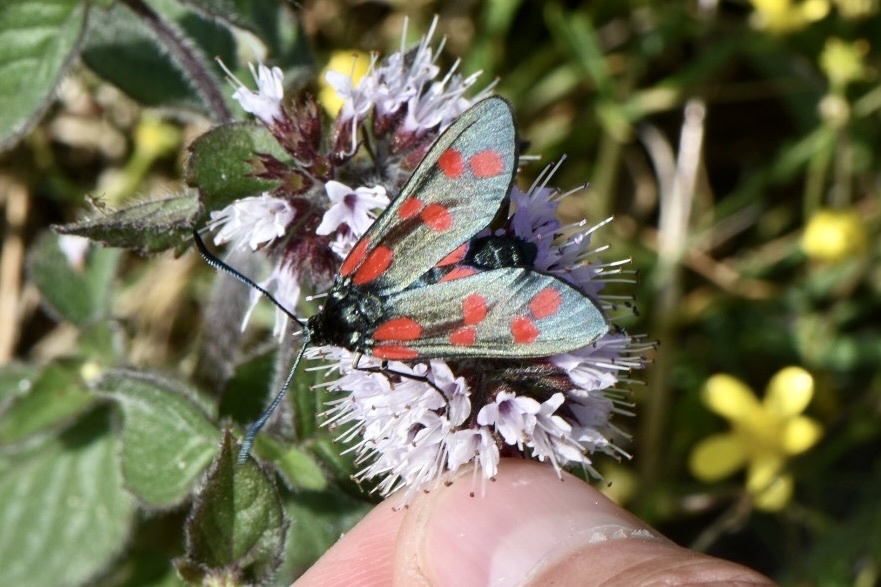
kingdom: Animalia
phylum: Arthropoda
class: Insecta
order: Lepidoptera
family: Zygaenidae
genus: Zygaena
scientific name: Zygaena filipendulae
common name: Six-spot burnet
